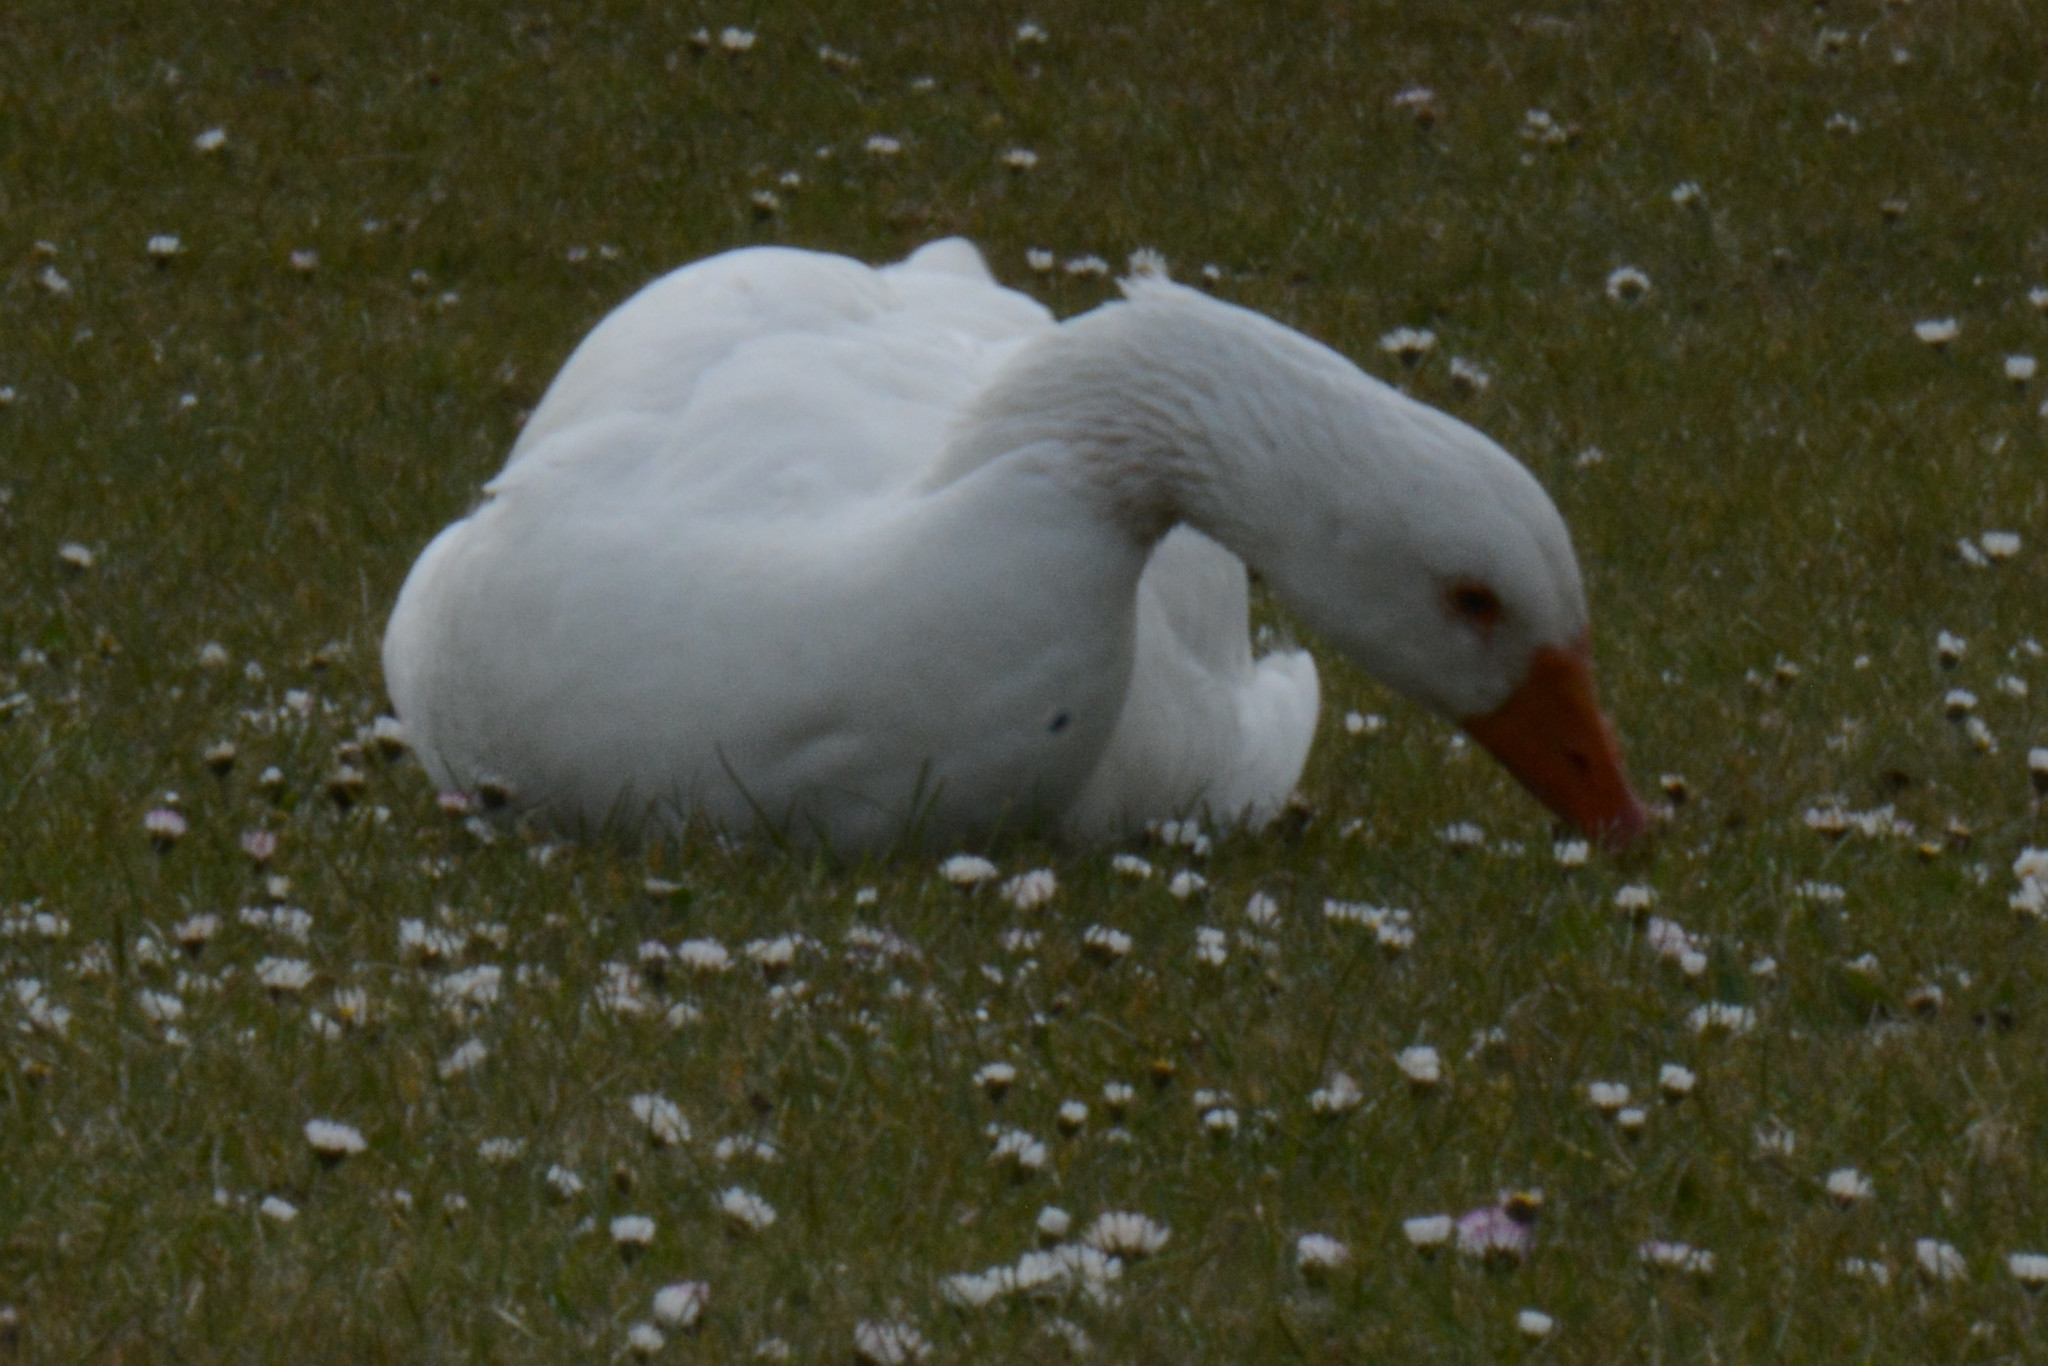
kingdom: Animalia
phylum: Chordata
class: Aves
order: Anseriformes
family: Anatidae
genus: Anser
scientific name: Anser anser
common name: Greylag goose
